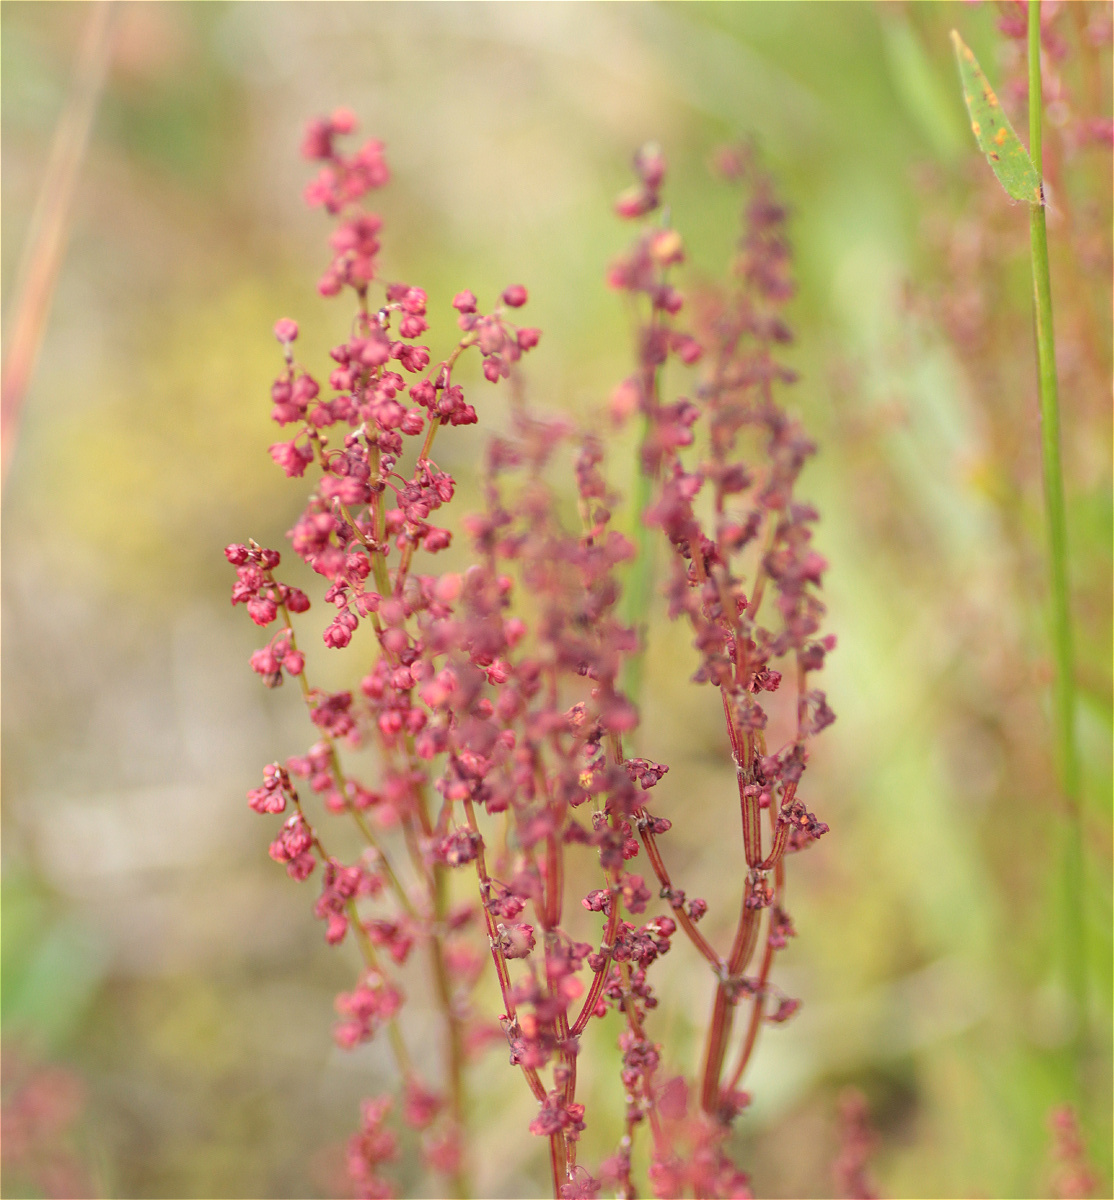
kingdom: Plantae
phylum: Tracheophyta
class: Magnoliopsida
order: Caryophyllales
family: Polygonaceae
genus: Rumex
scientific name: Rumex acetosella
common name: Common sheep sorrel
